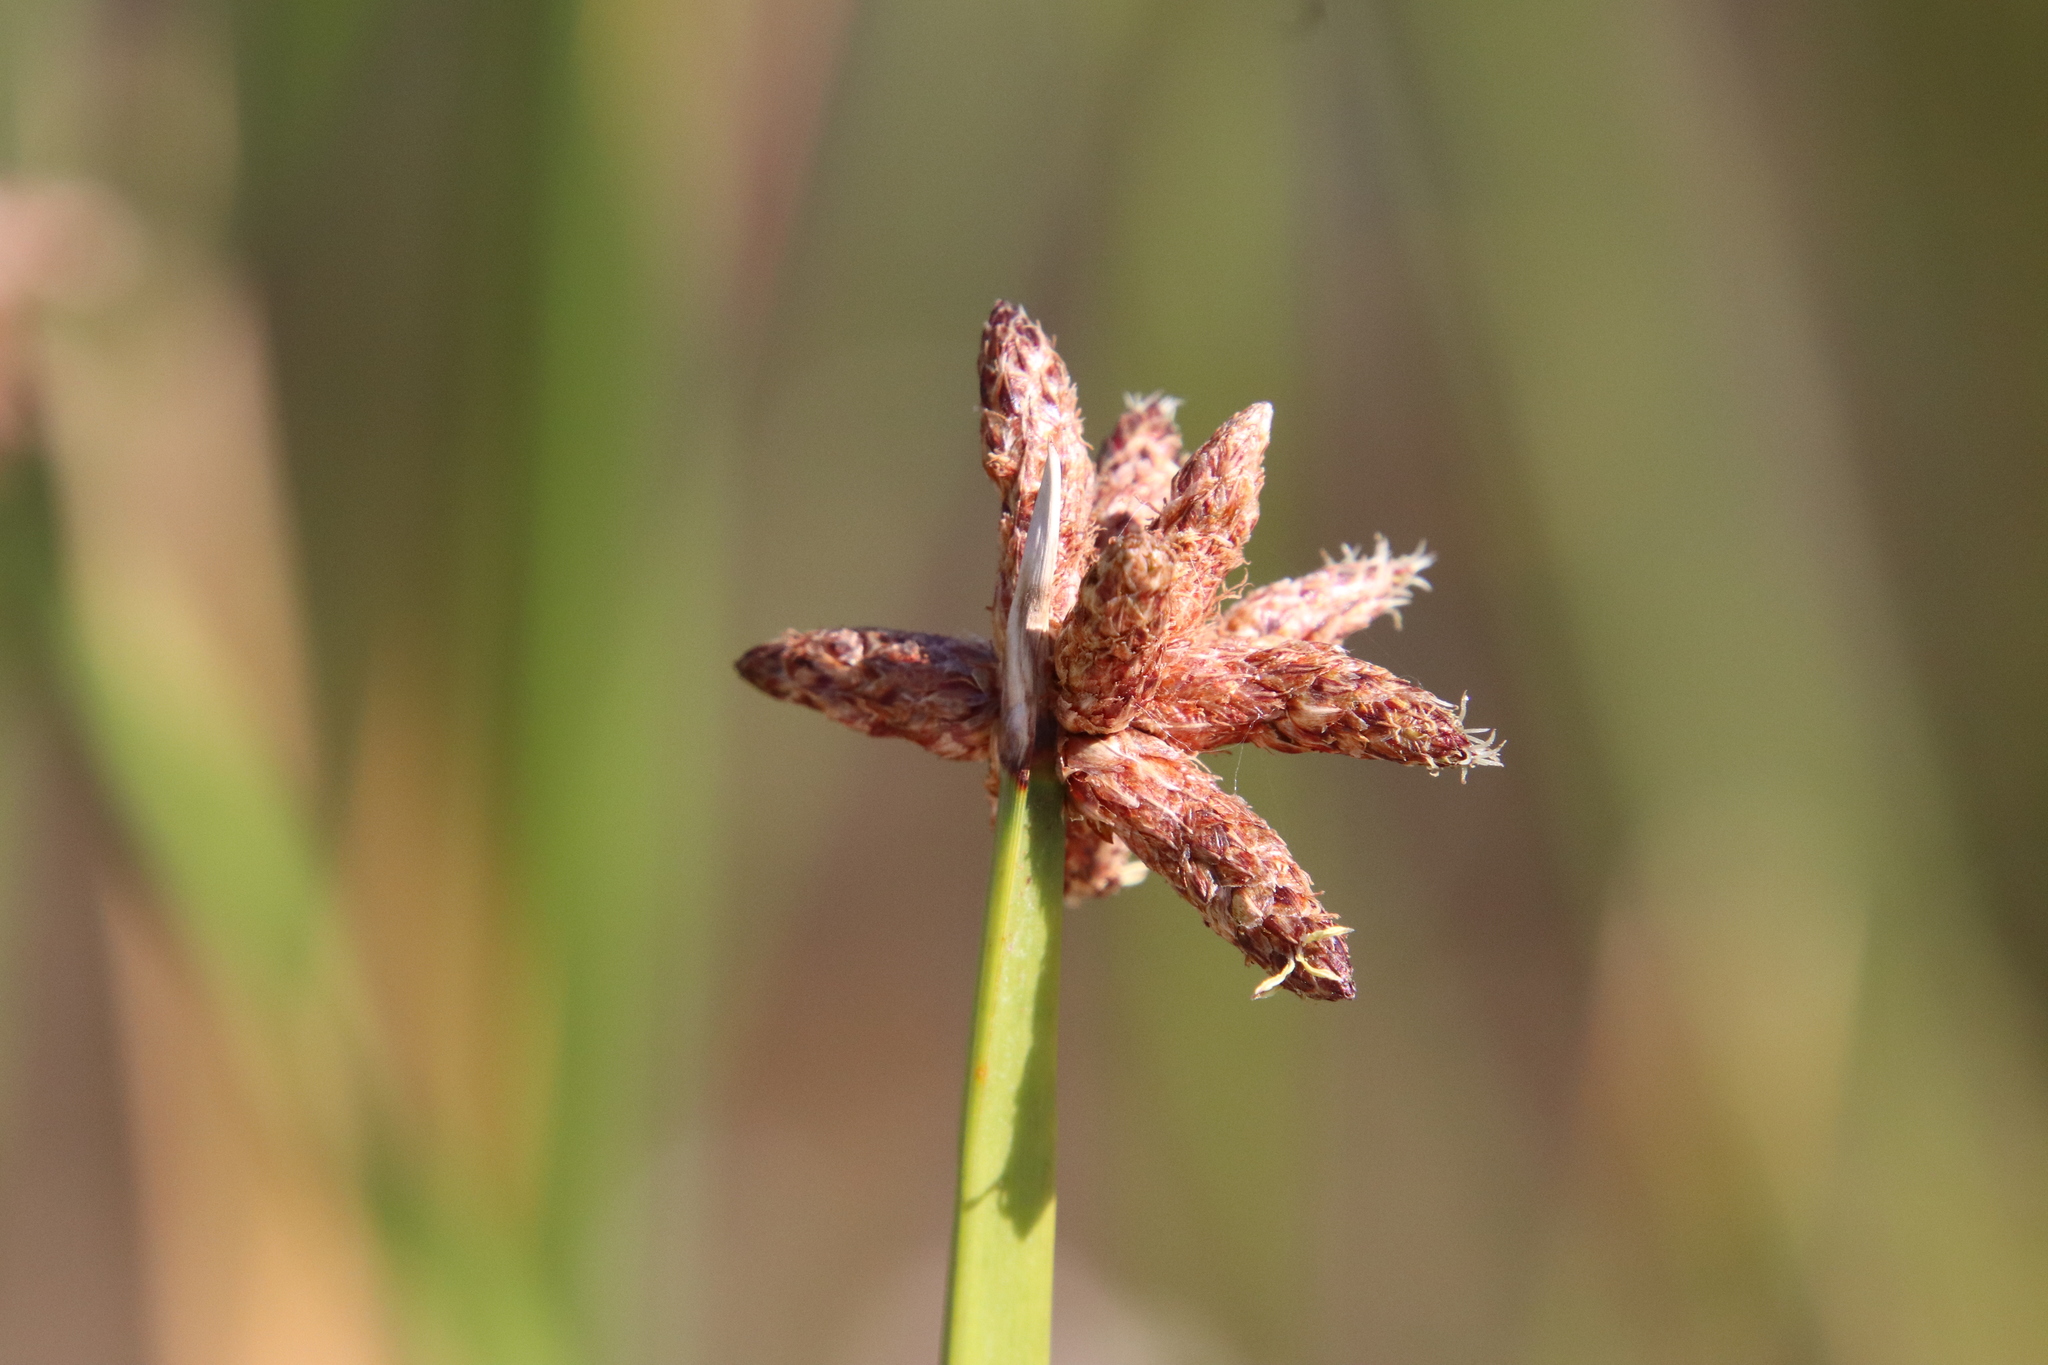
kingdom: Plantae
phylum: Tracheophyta
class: Liliopsida
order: Poales
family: Cyperaceae
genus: Schoenoplectus
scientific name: Schoenoplectus americanus
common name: American three-square bulrush
